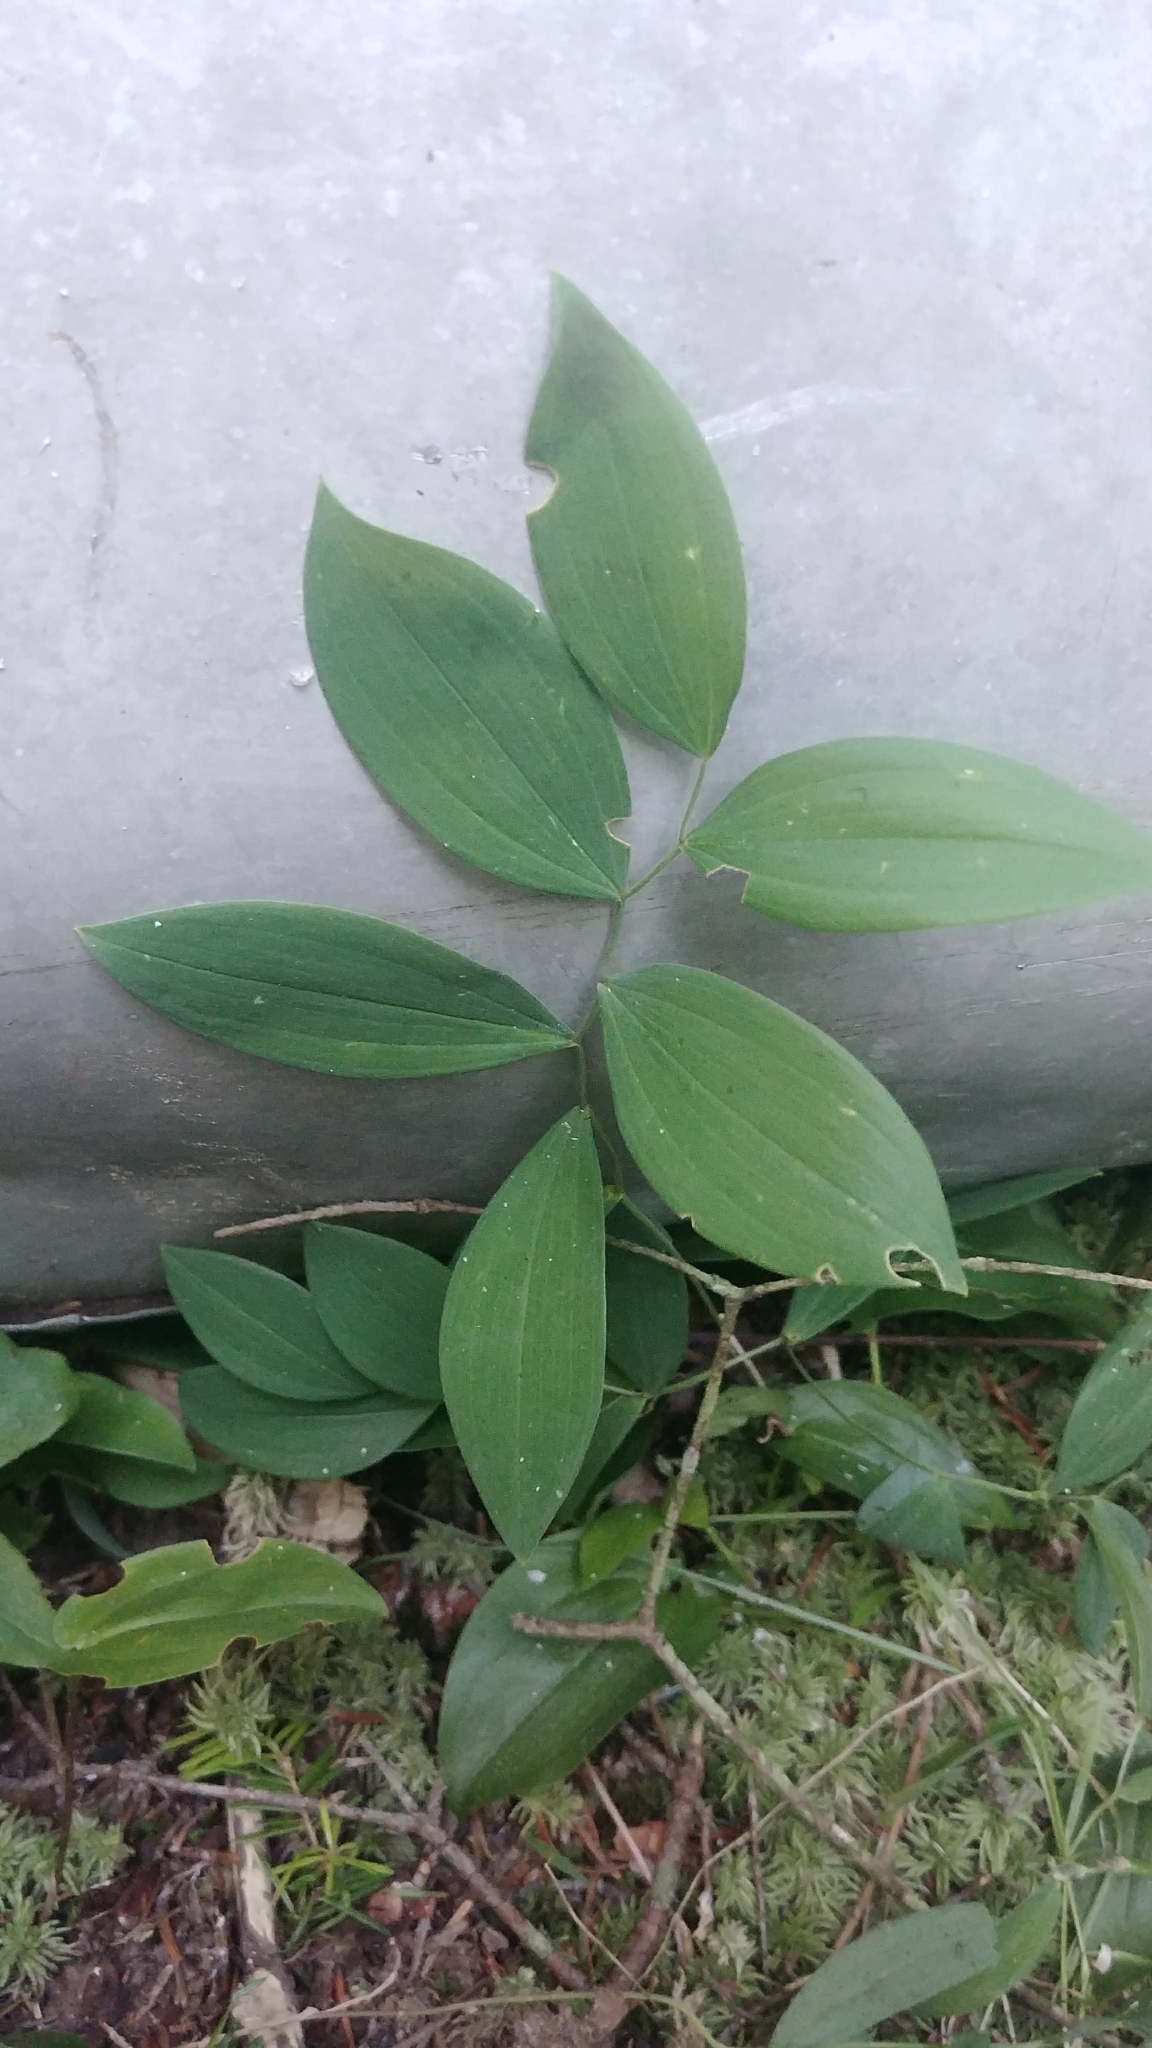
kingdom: Plantae
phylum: Tracheophyta
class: Liliopsida
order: Liliales
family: Colchicaceae
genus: Uvularia
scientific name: Uvularia sessilifolia
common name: Straw-lily
